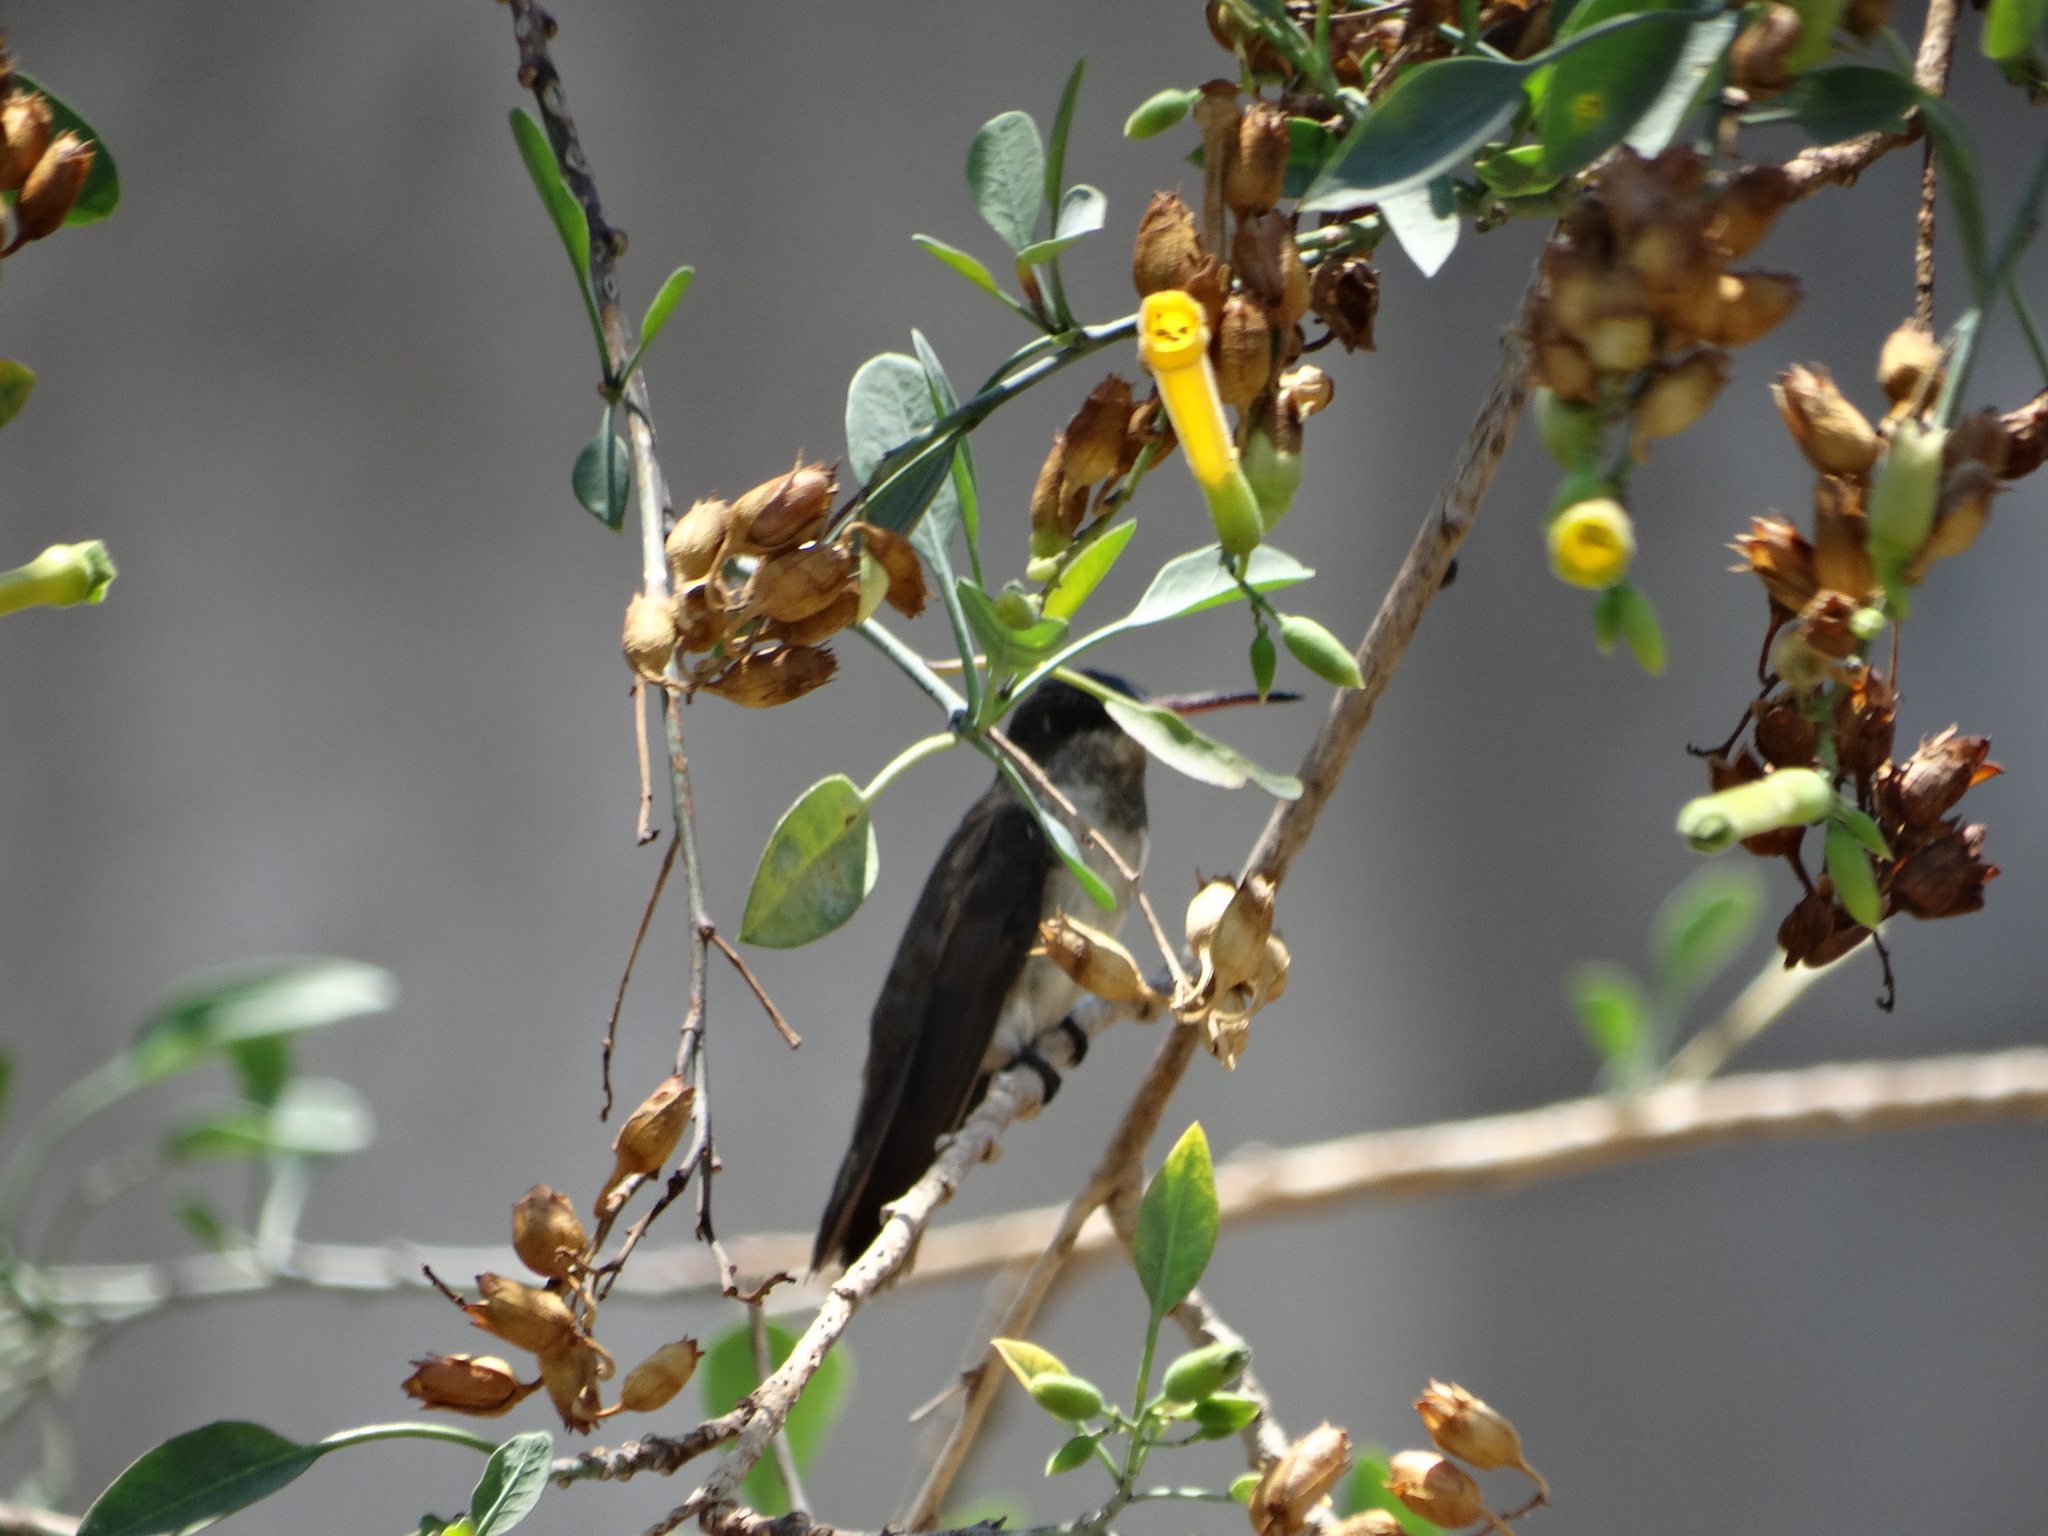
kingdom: Animalia
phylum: Chordata
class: Aves
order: Apodiformes
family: Trochilidae
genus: Leucolia
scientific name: Leucolia violiceps
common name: Violet-crowned hummingbird
